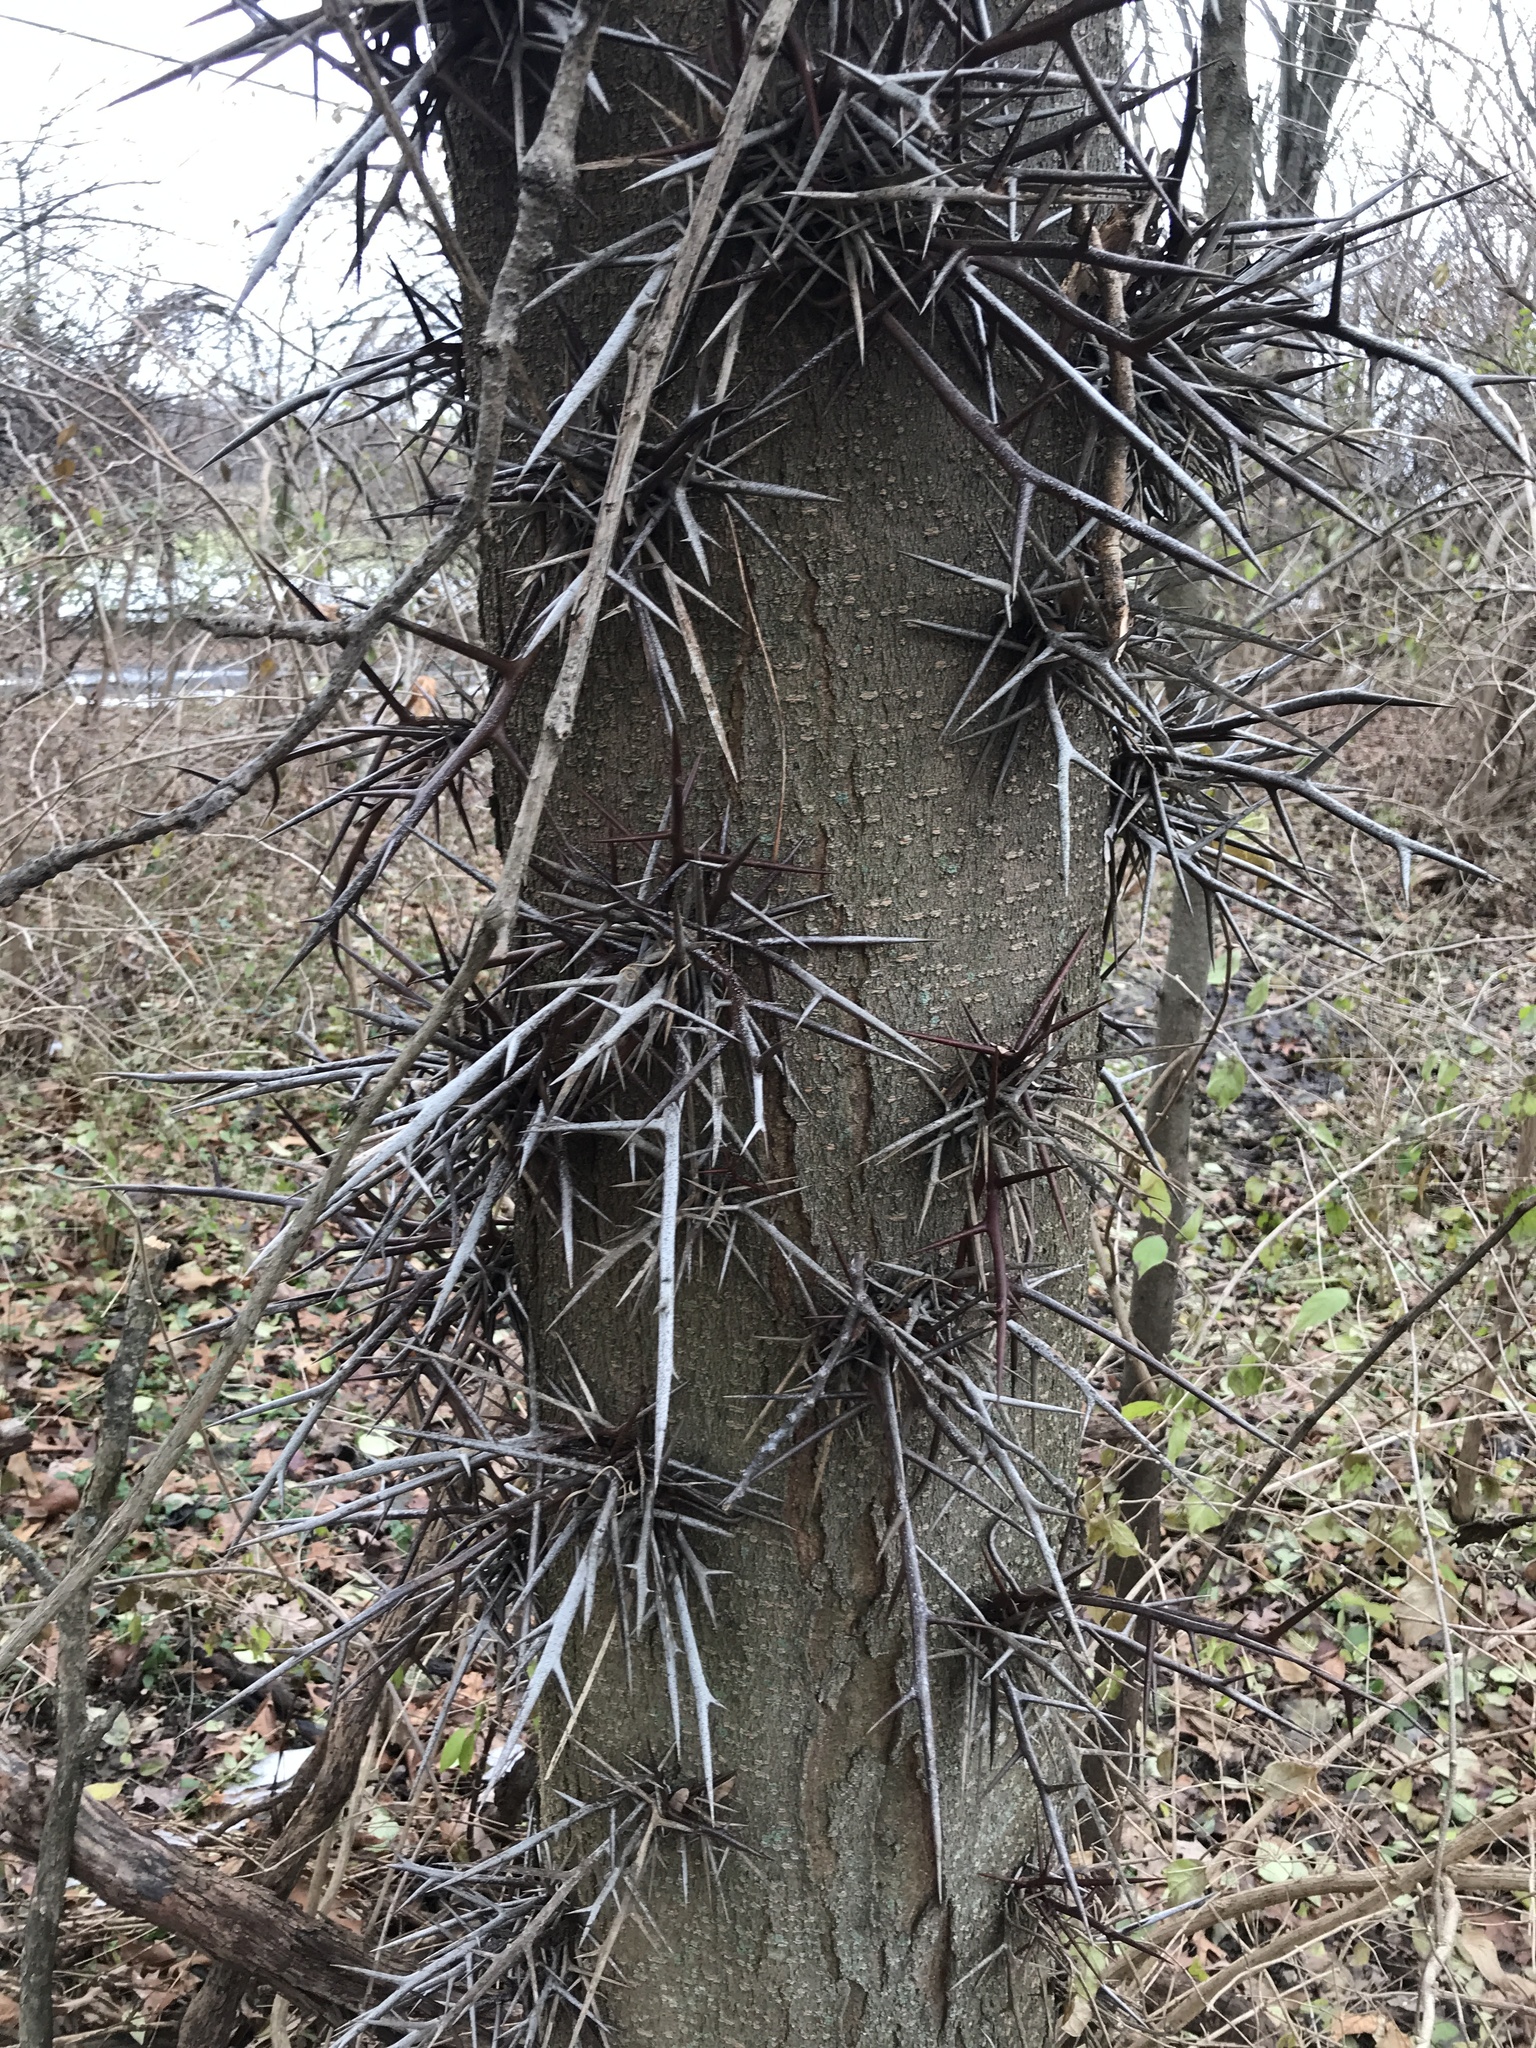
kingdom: Plantae
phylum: Tracheophyta
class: Magnoliopsida
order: Fabales
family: Fabaceae
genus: Gleditsia
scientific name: Gleditsia triacanthos
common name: Common honeylocust
